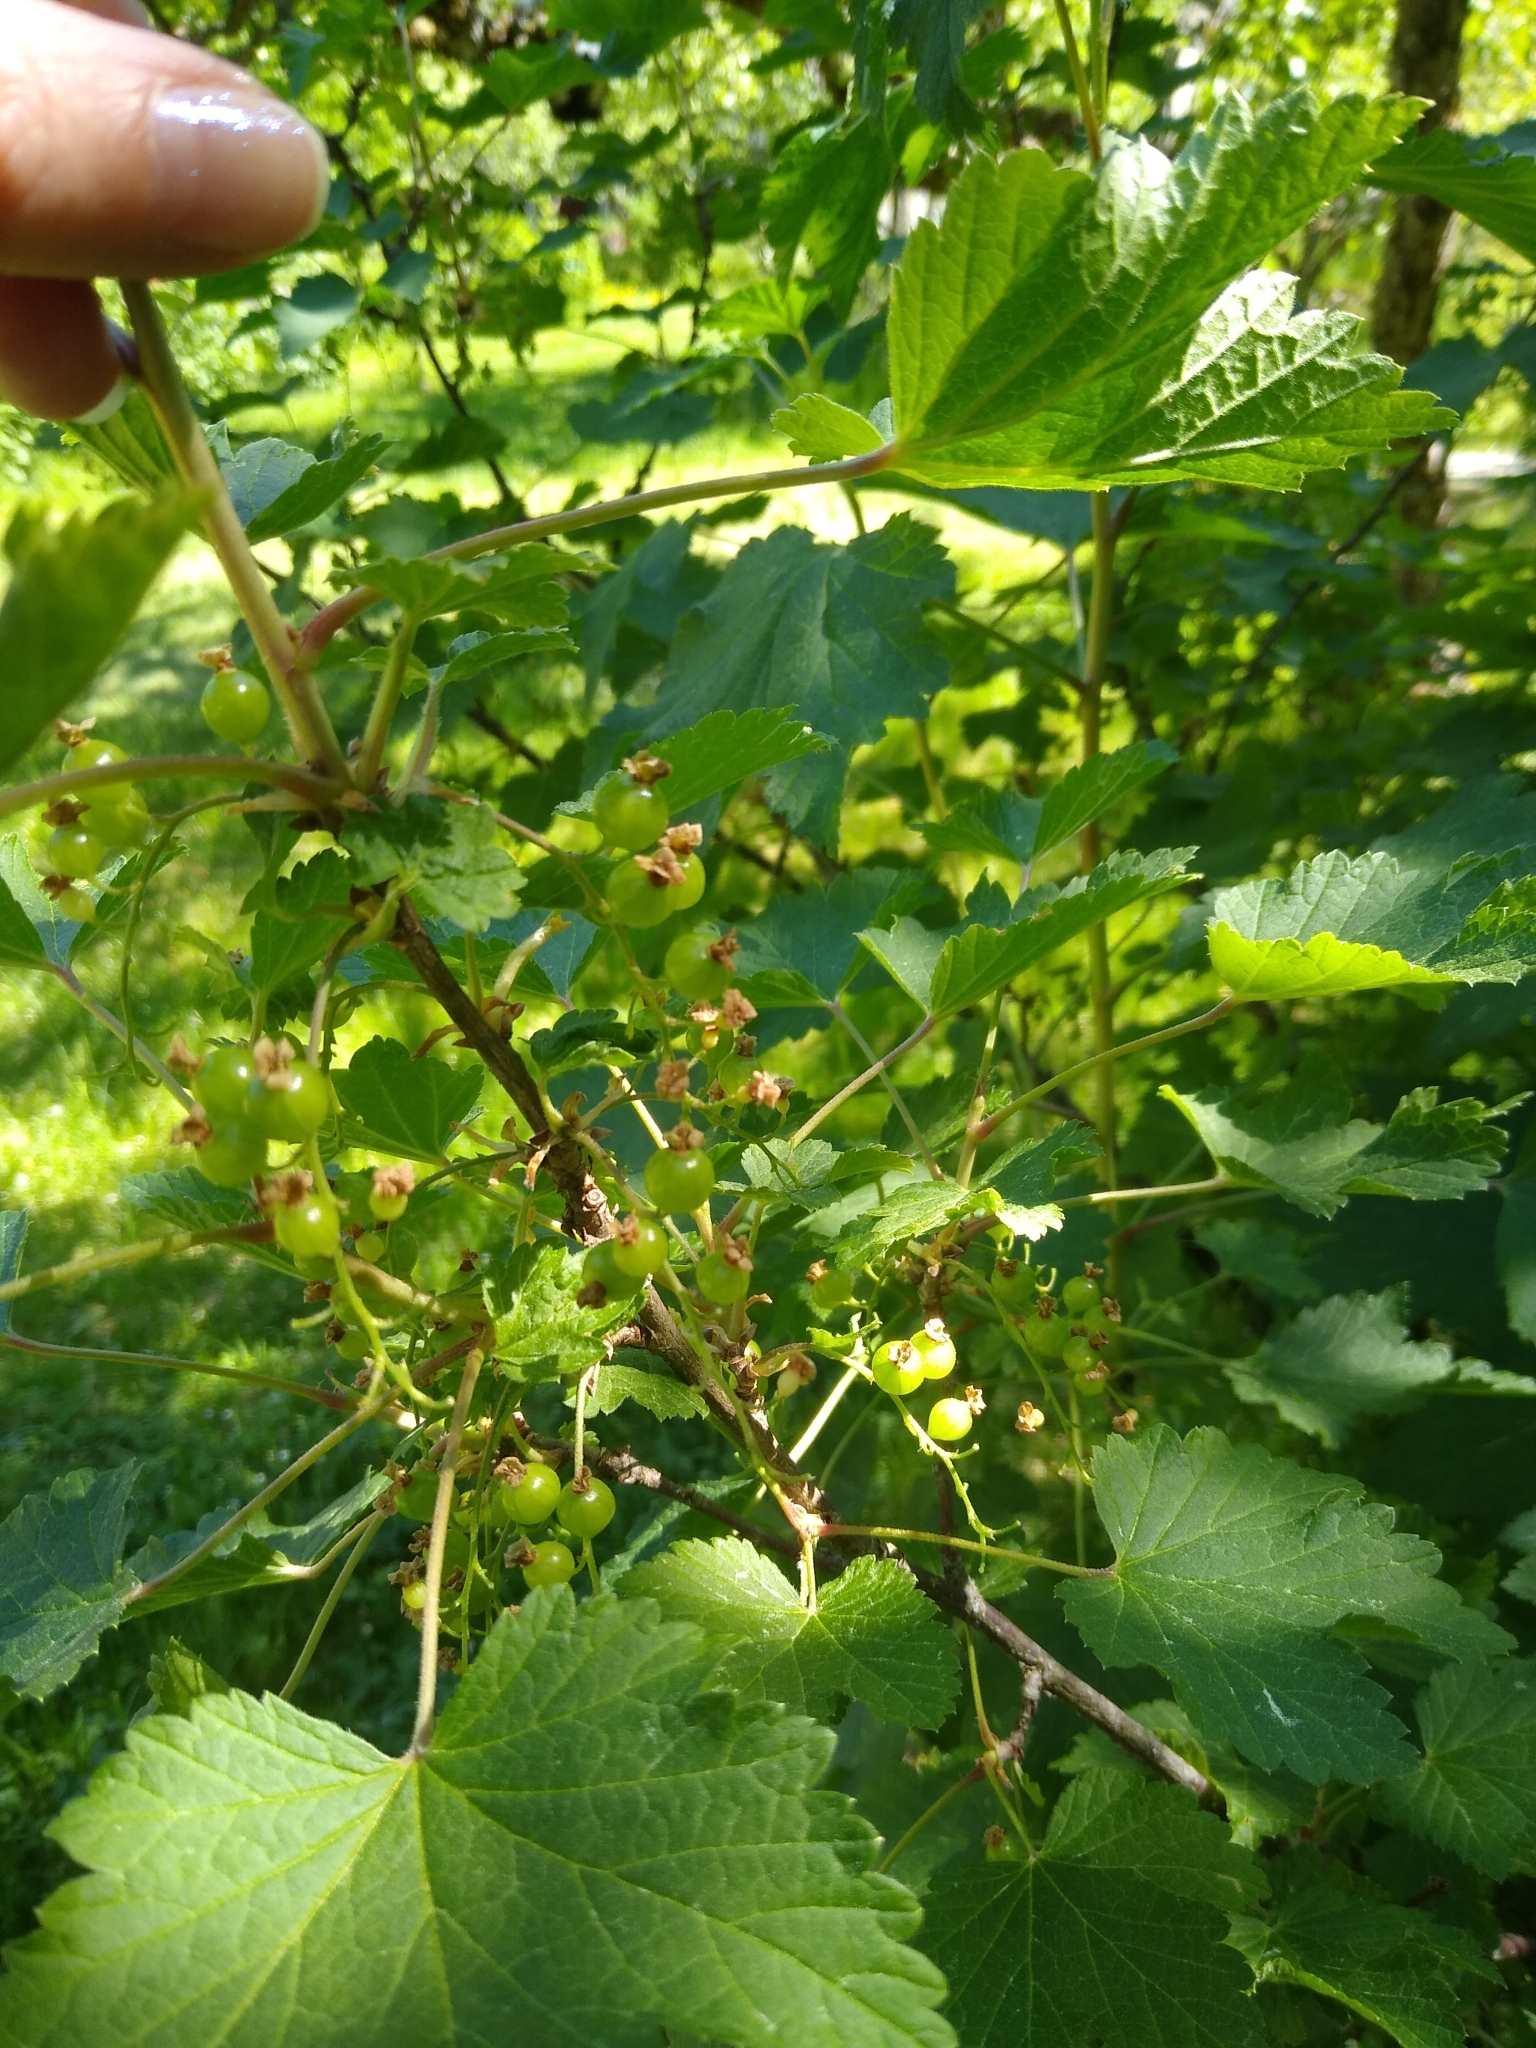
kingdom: Plantae
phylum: Tracheophyta
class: Magnoliopsida
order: Saxifragales
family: Grossulariaceae
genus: Ribes
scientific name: Ribes rubrum
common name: Red currant
